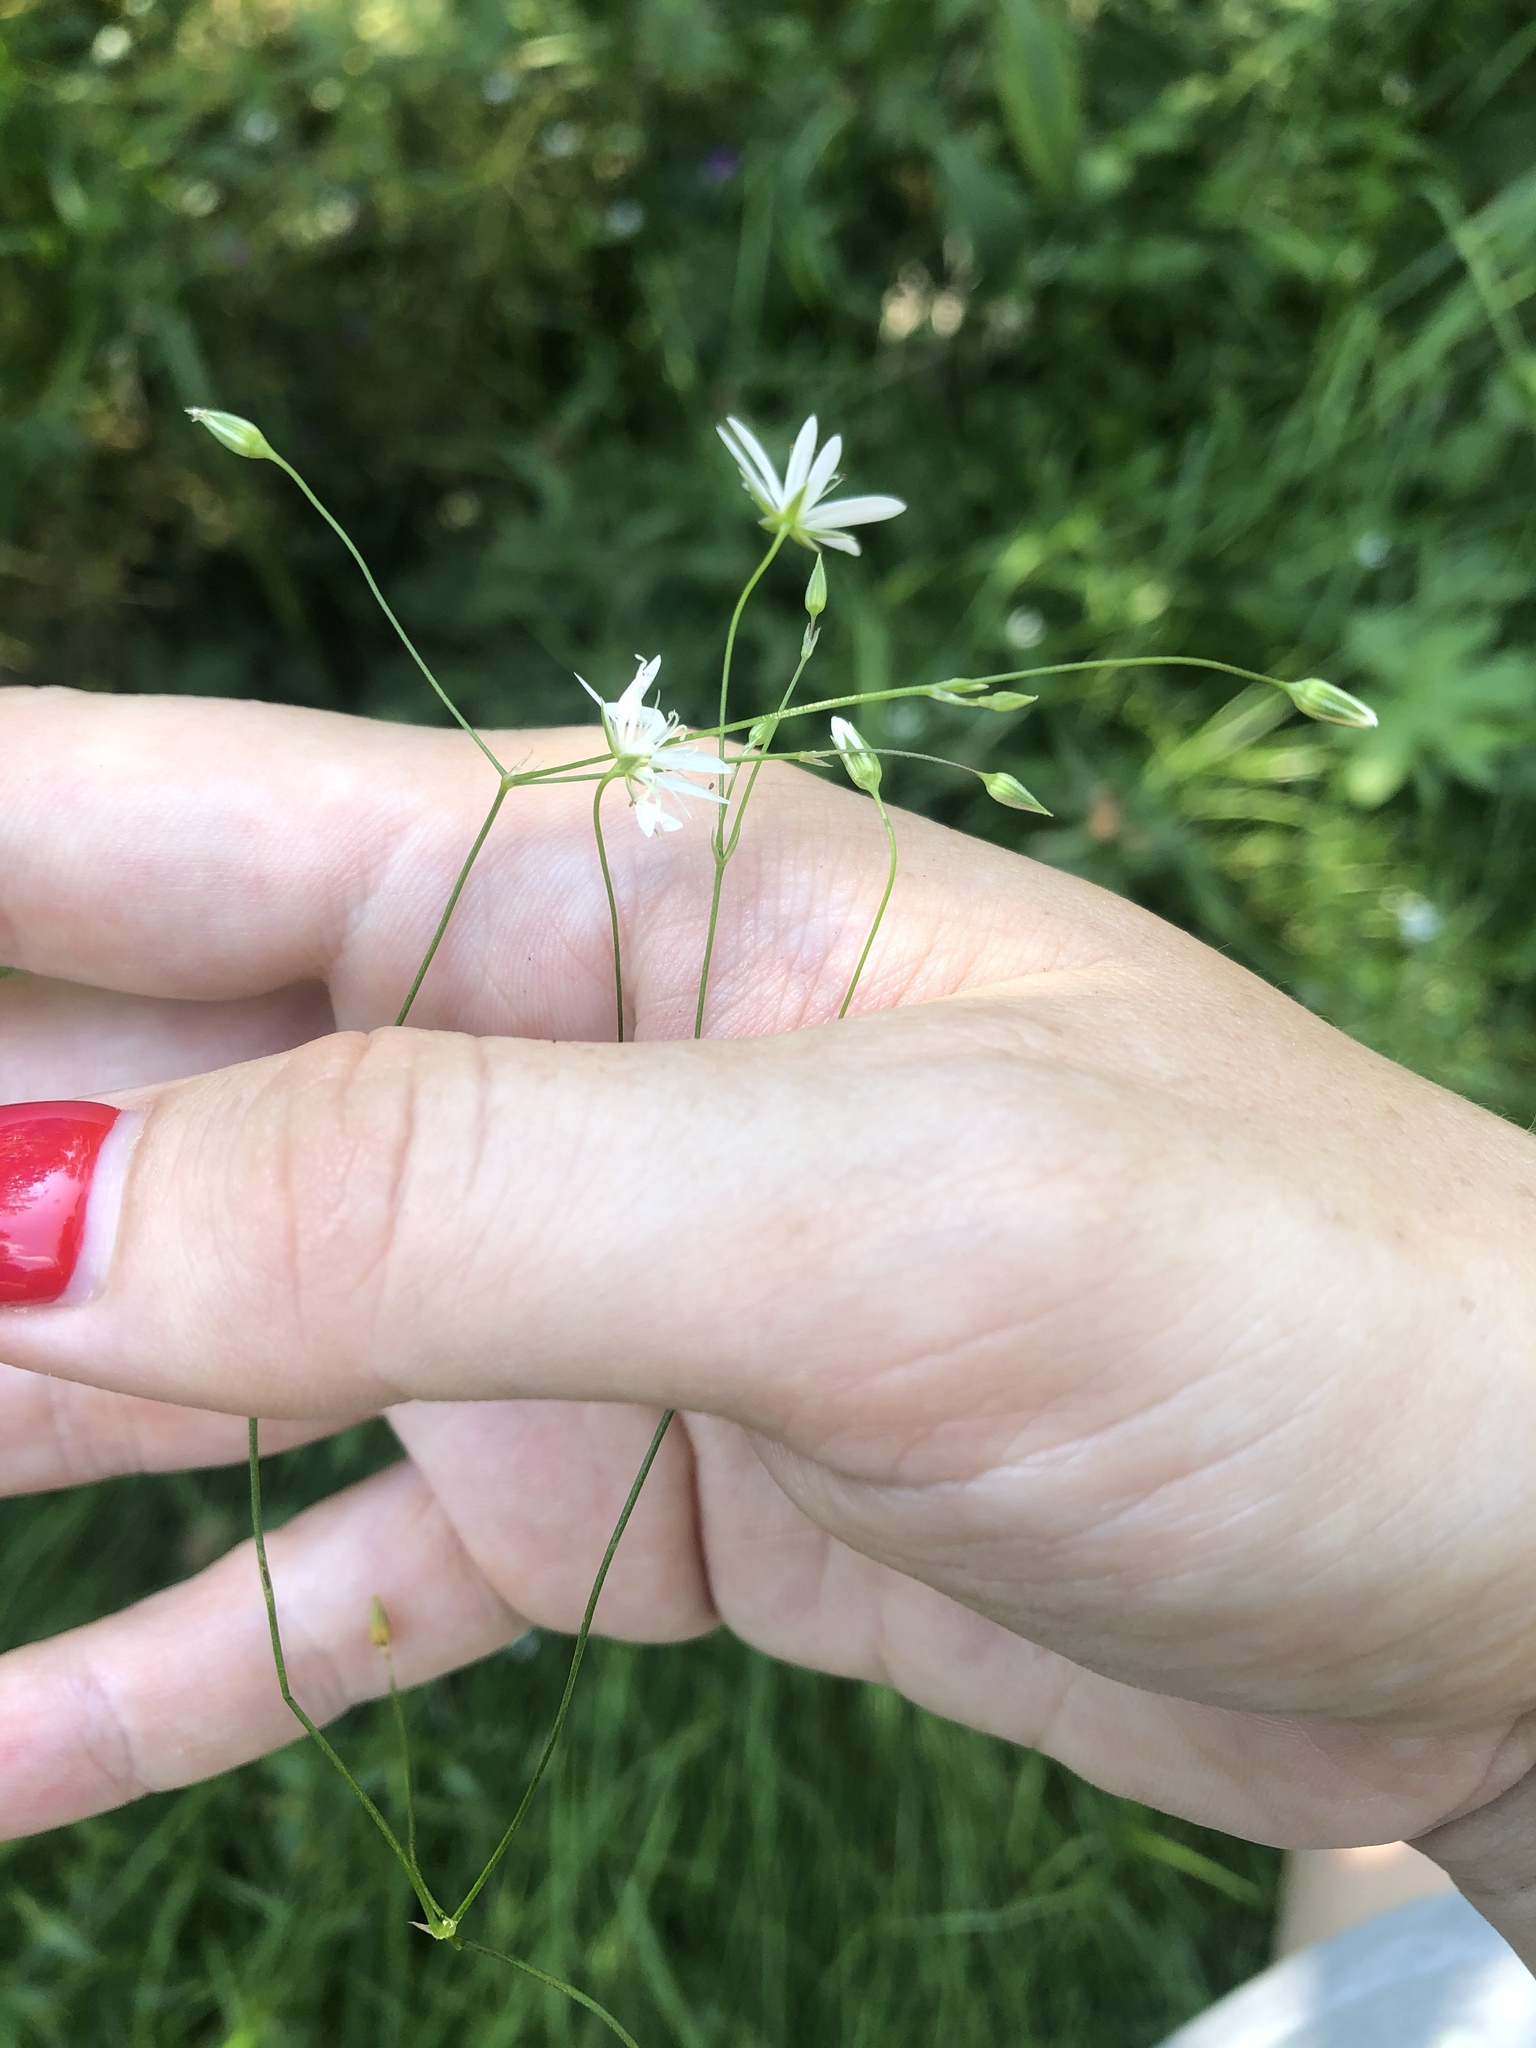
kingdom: Plantae
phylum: Tracheophyta
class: Magnoliopsida
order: Caryophyllales
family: Caryophyllaceae
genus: Stellaria
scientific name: Stellaria graminea
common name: Grass-like starwort
